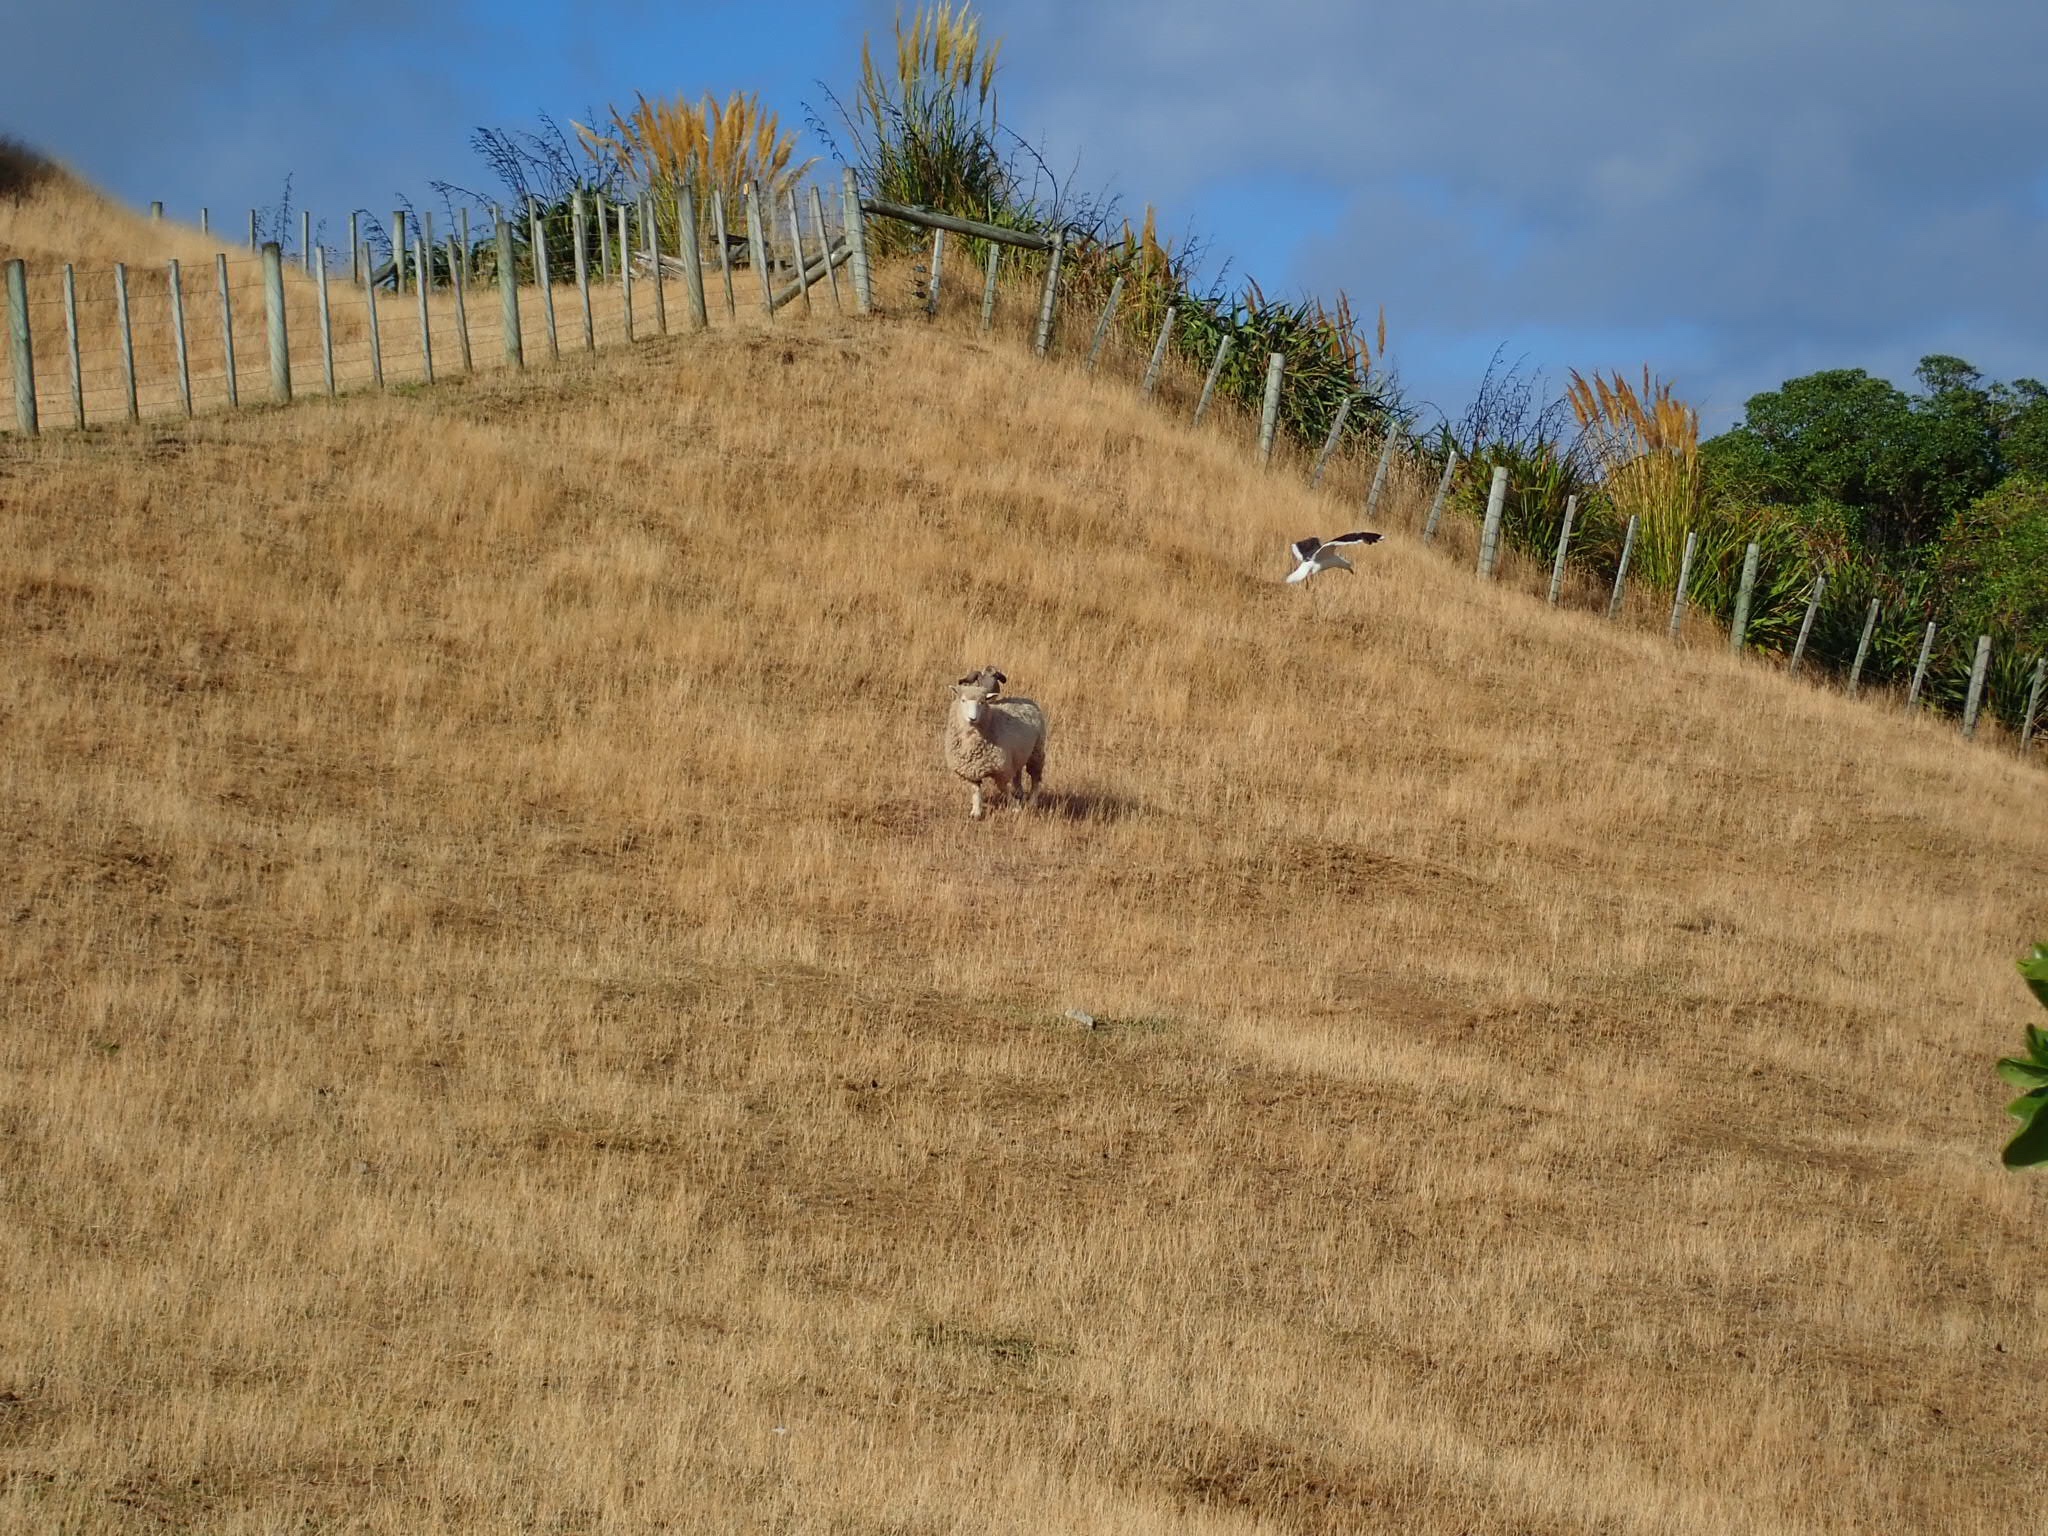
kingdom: Animalia
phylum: Chordata
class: Aves
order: Charadriiformes
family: Laridae
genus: Larus
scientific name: Larus dominicanus
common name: Kelp gull
